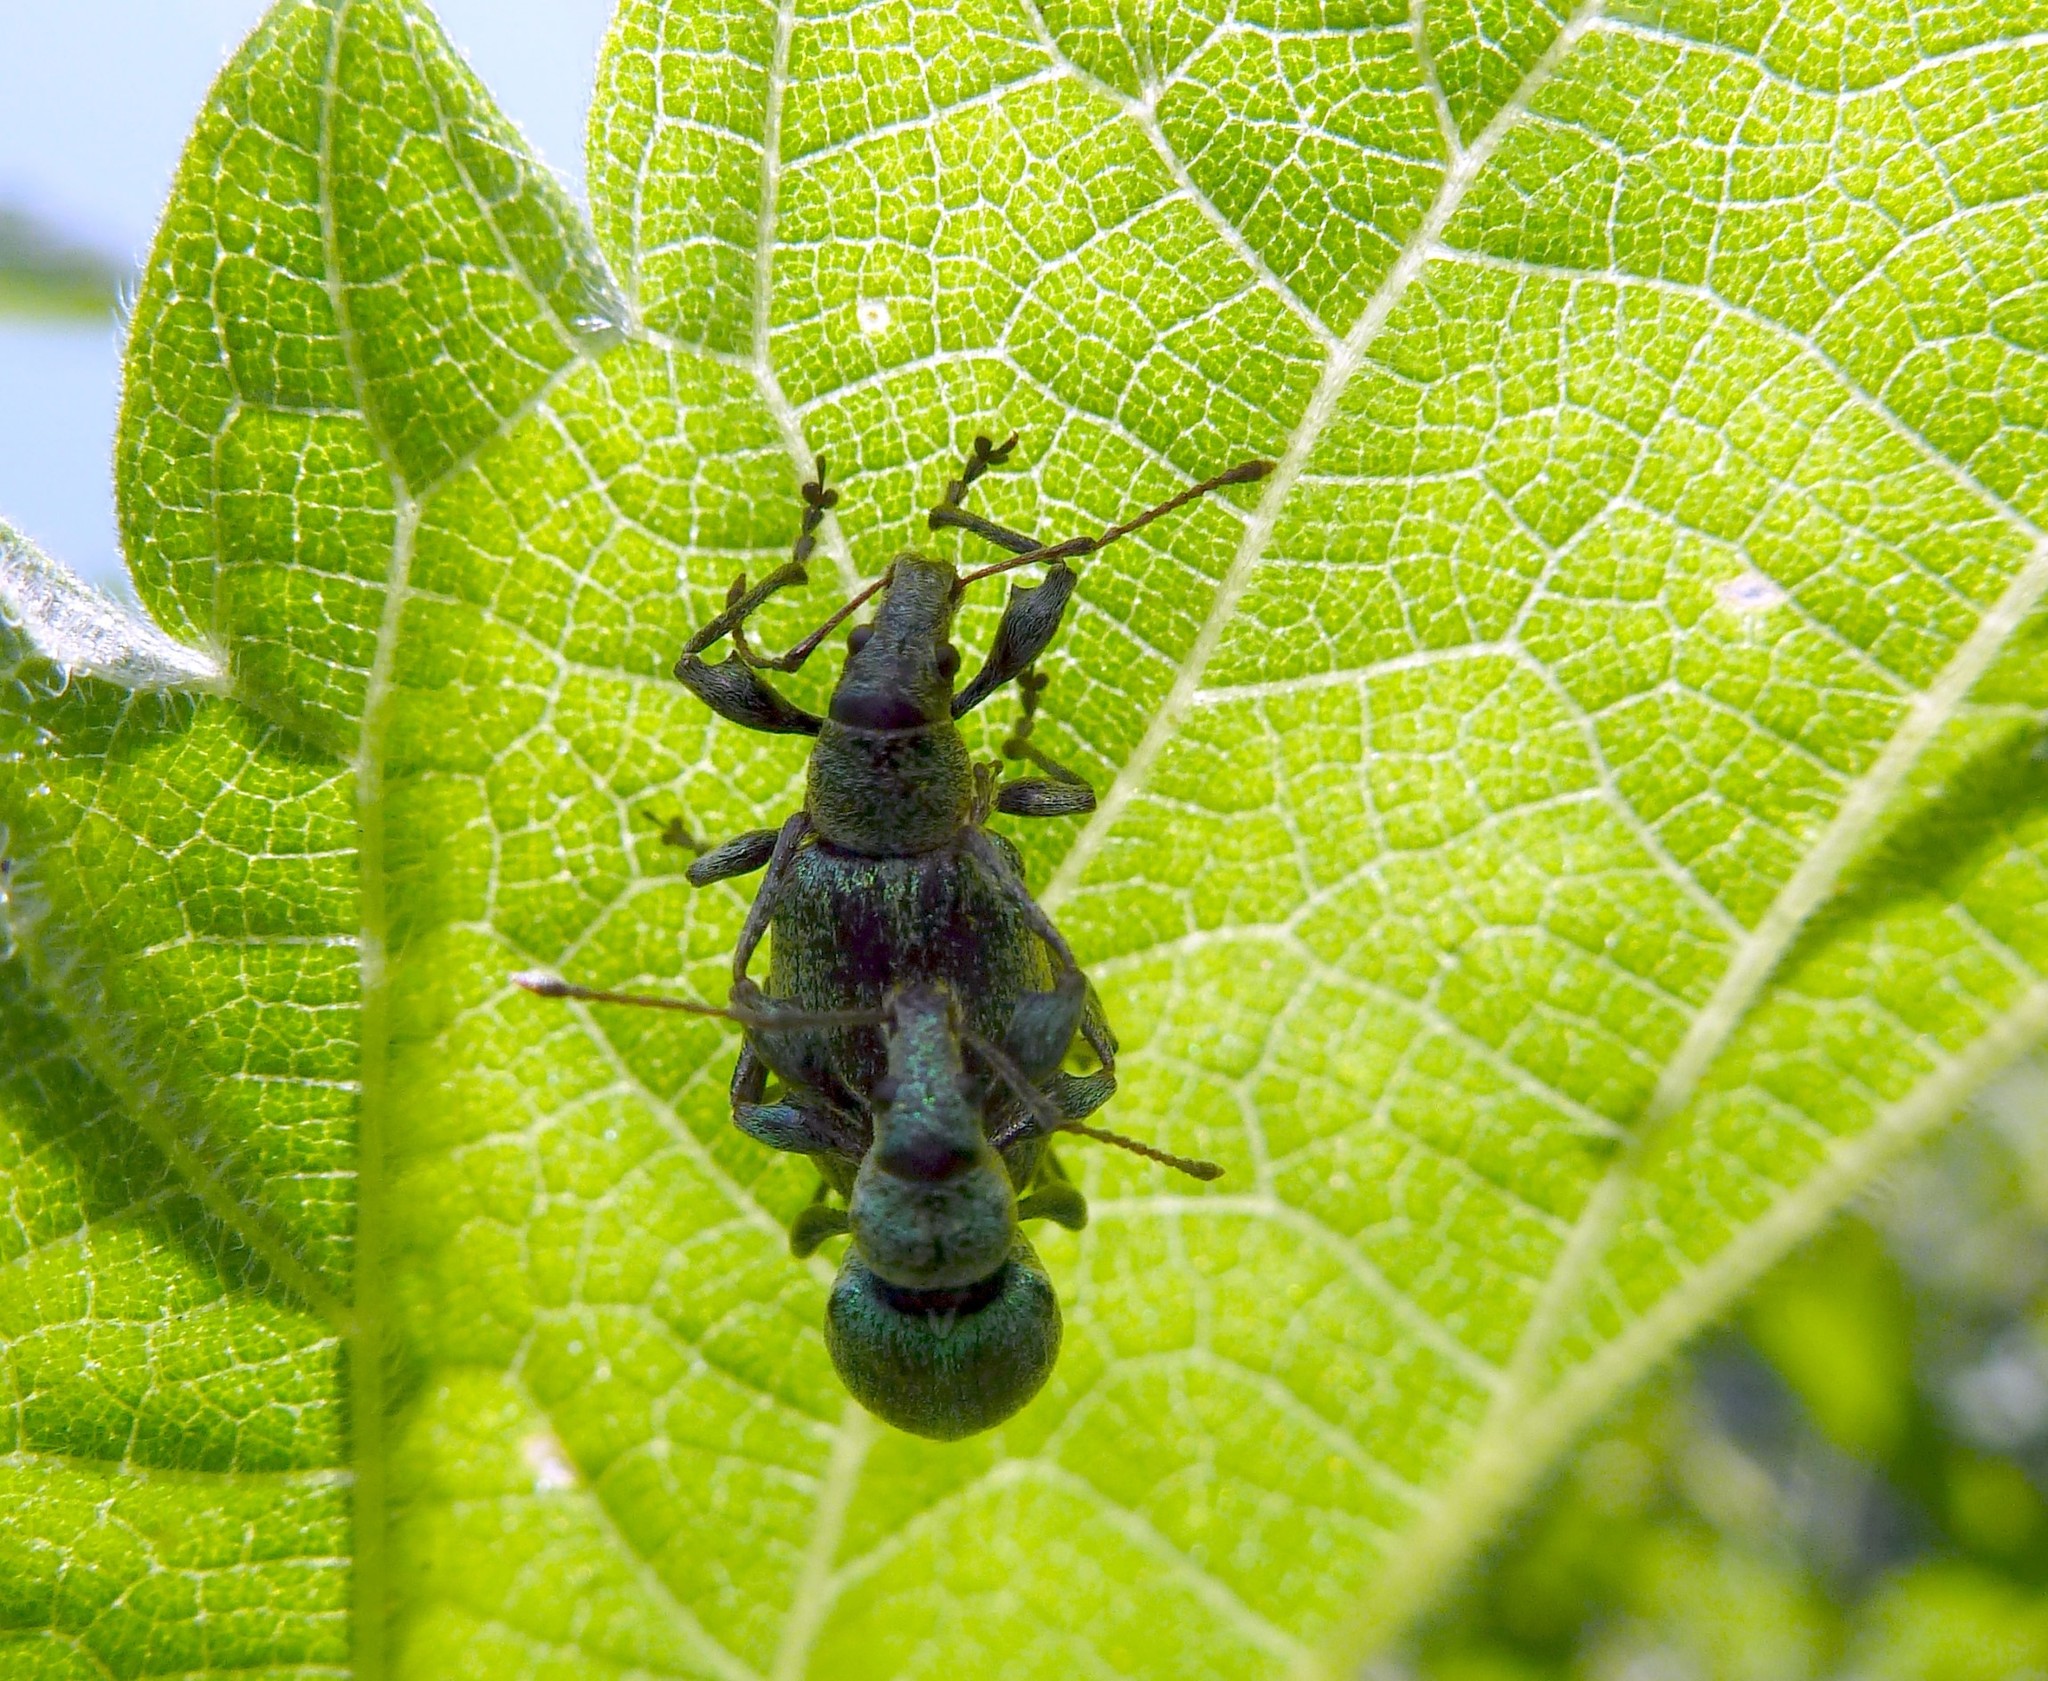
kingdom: Animalia
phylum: Arthropoda
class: Insecta
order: Coleoptera
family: Curculionidae
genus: Phyllobius
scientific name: Phyllobius pomaceus
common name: Green nettle weevil
